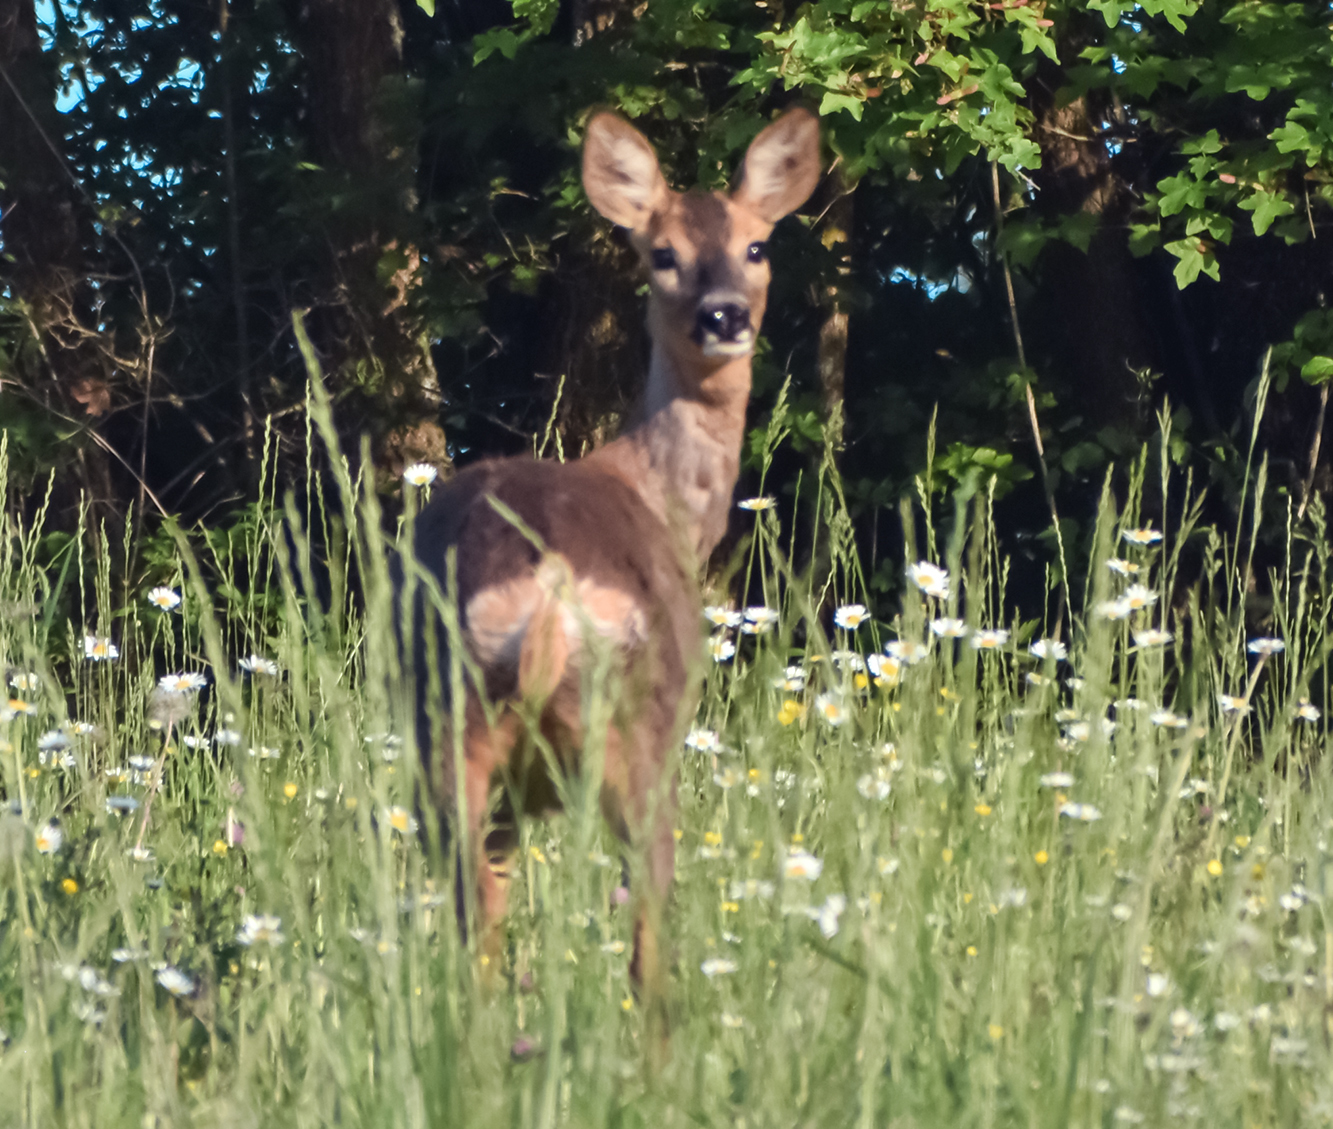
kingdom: Animalia
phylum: Chordata
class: Mammalia
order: Artiodactyla
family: Cervidae
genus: Capreolus
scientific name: Capreolus capreolus
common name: Western roe deer
